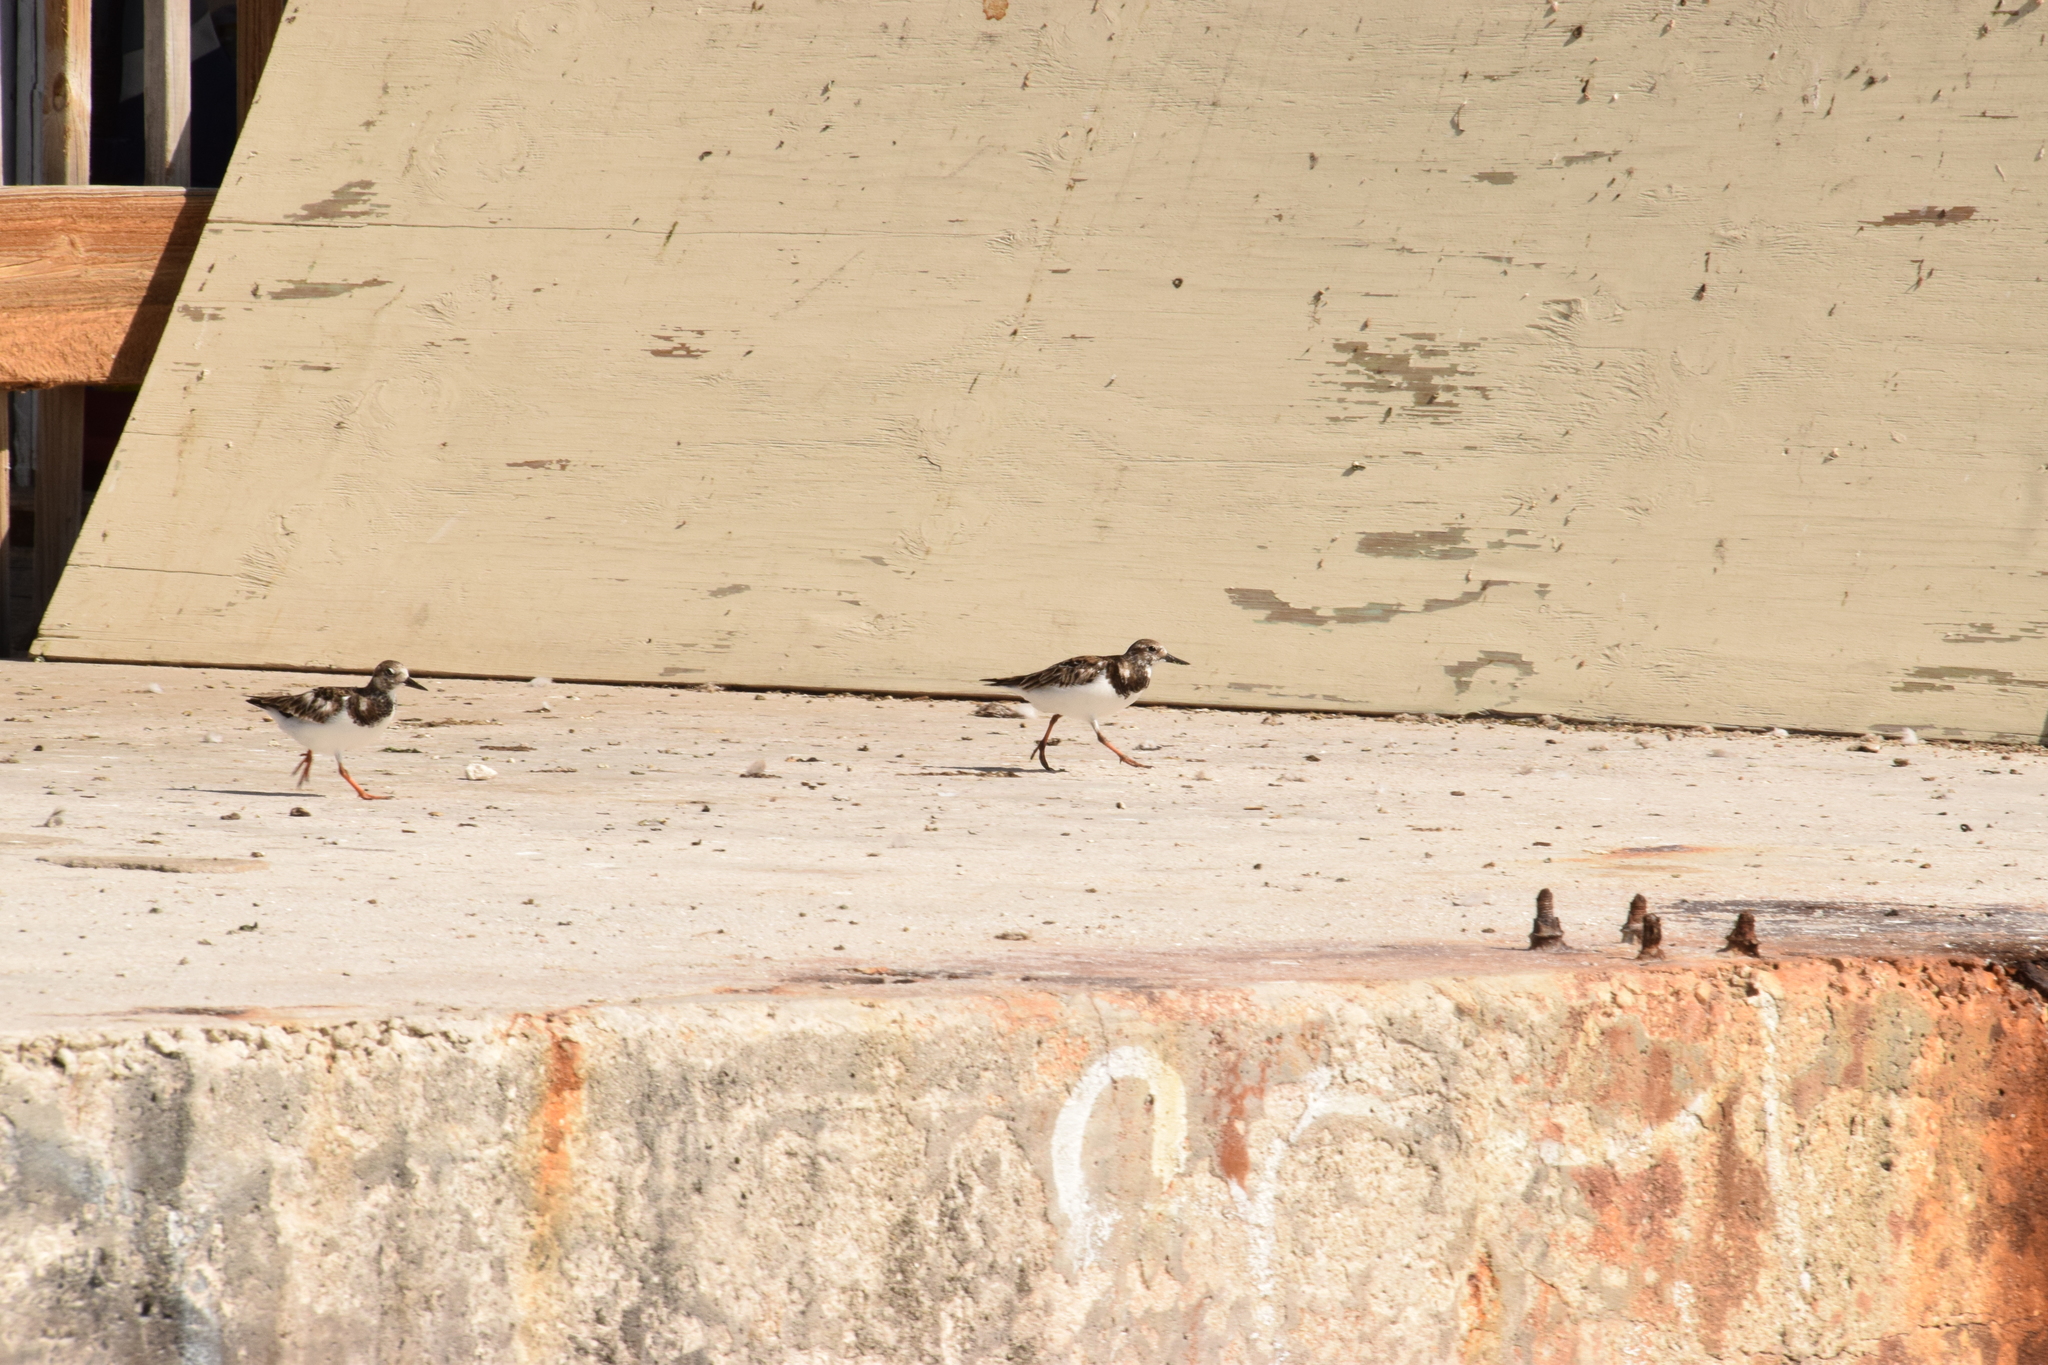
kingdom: Animalia
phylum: Chordata
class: Aves
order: Charadriiformes
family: Scolopacidae
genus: Arenaria
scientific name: Arenaria interpres
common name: Ruddy turnstone
